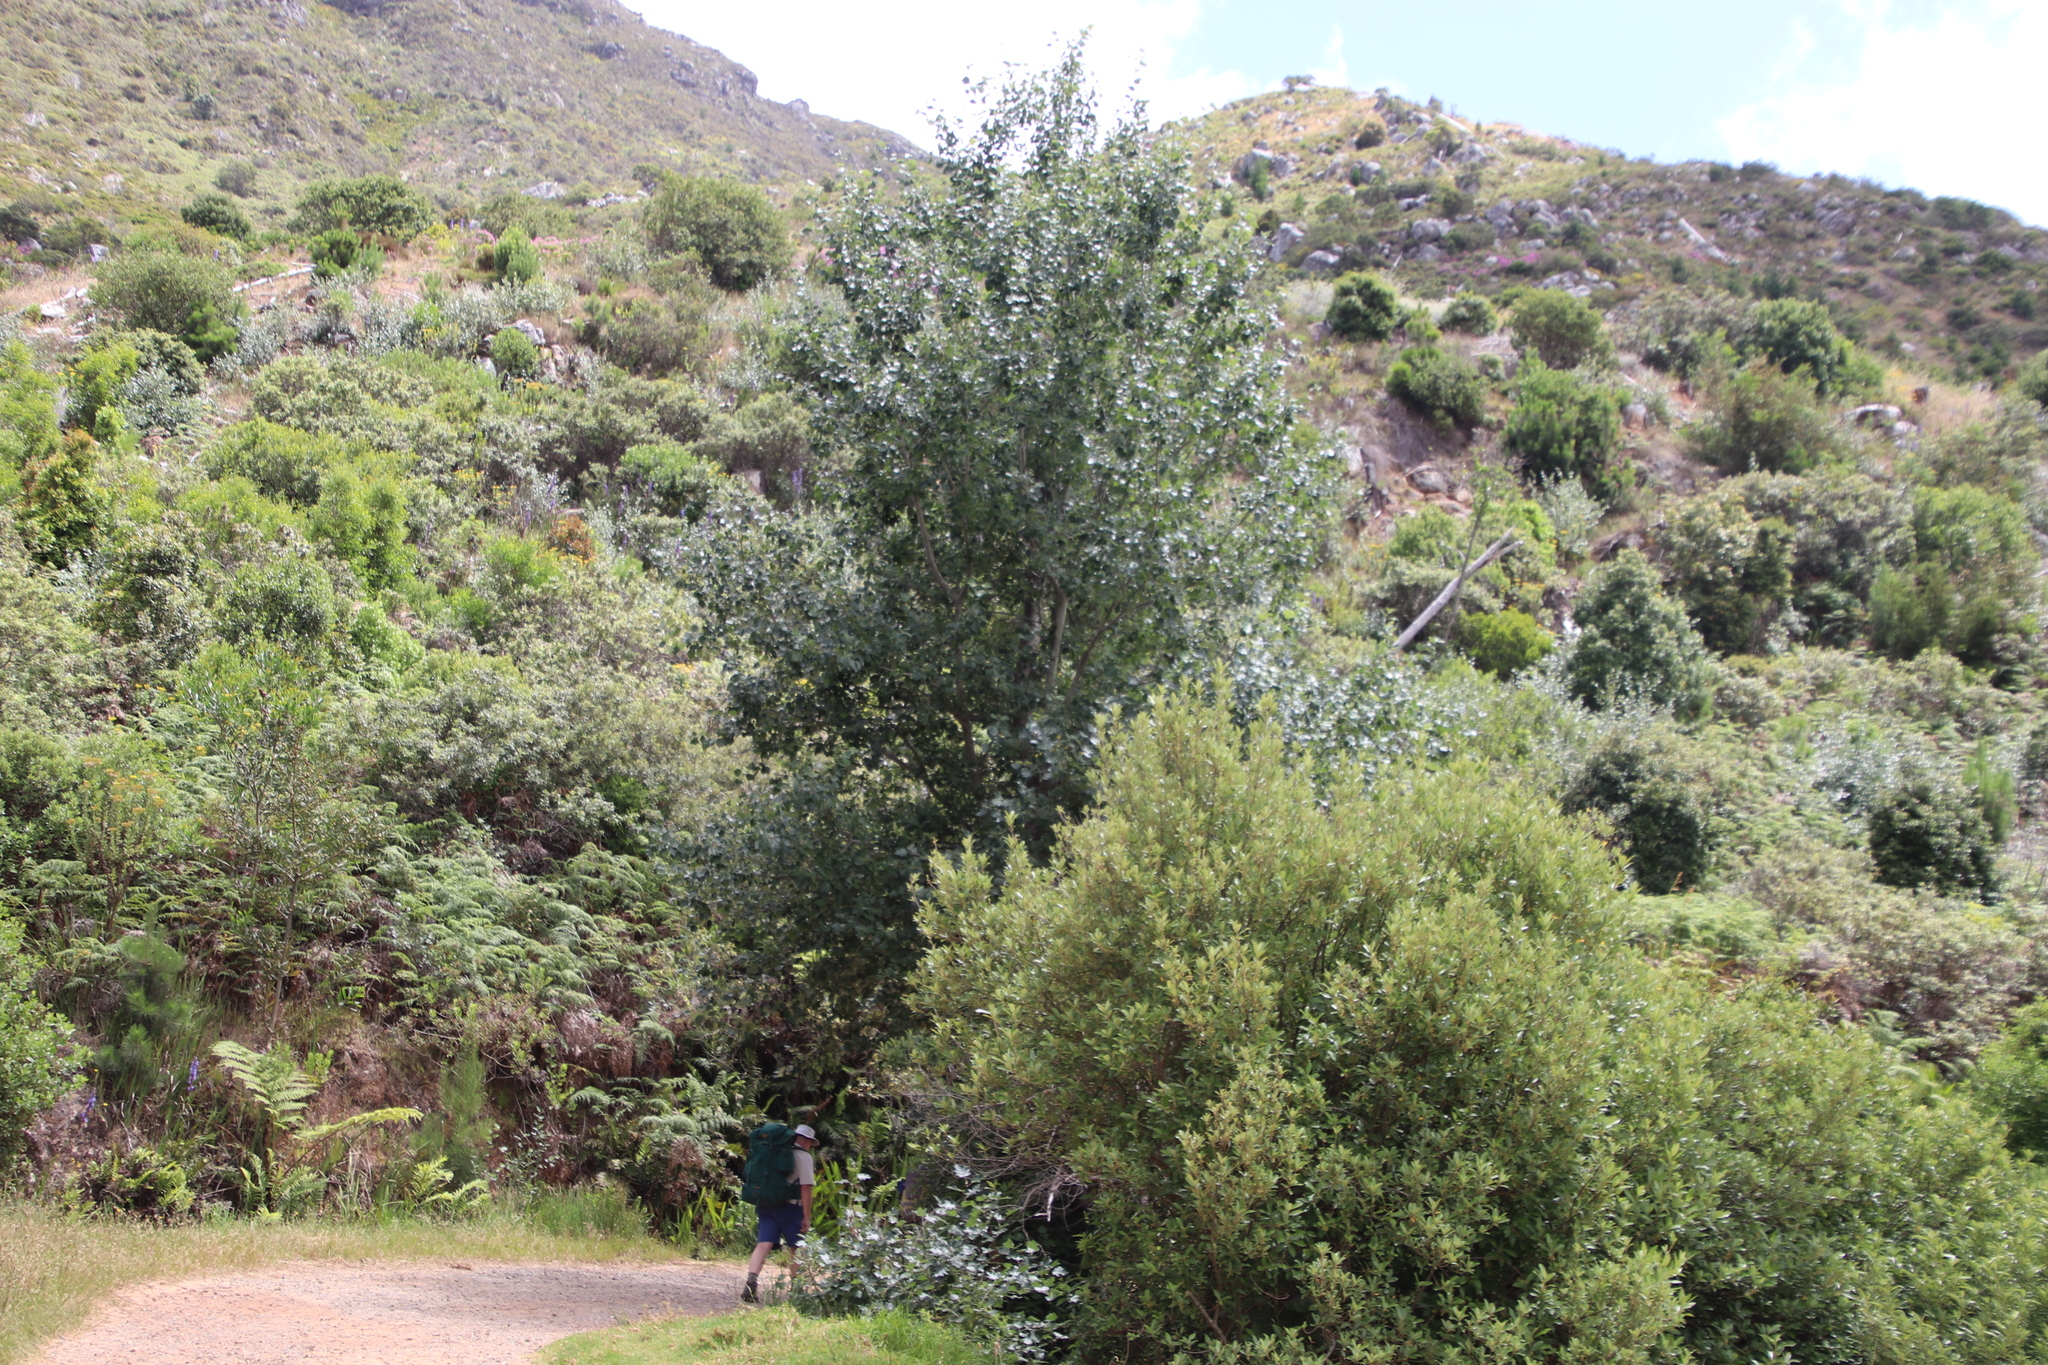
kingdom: Plantae
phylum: Tracheophyta
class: Magnoliopsida
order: Malpighiales
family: Salicaceae
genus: Populus
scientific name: Populus canescens
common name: Gray poplar
